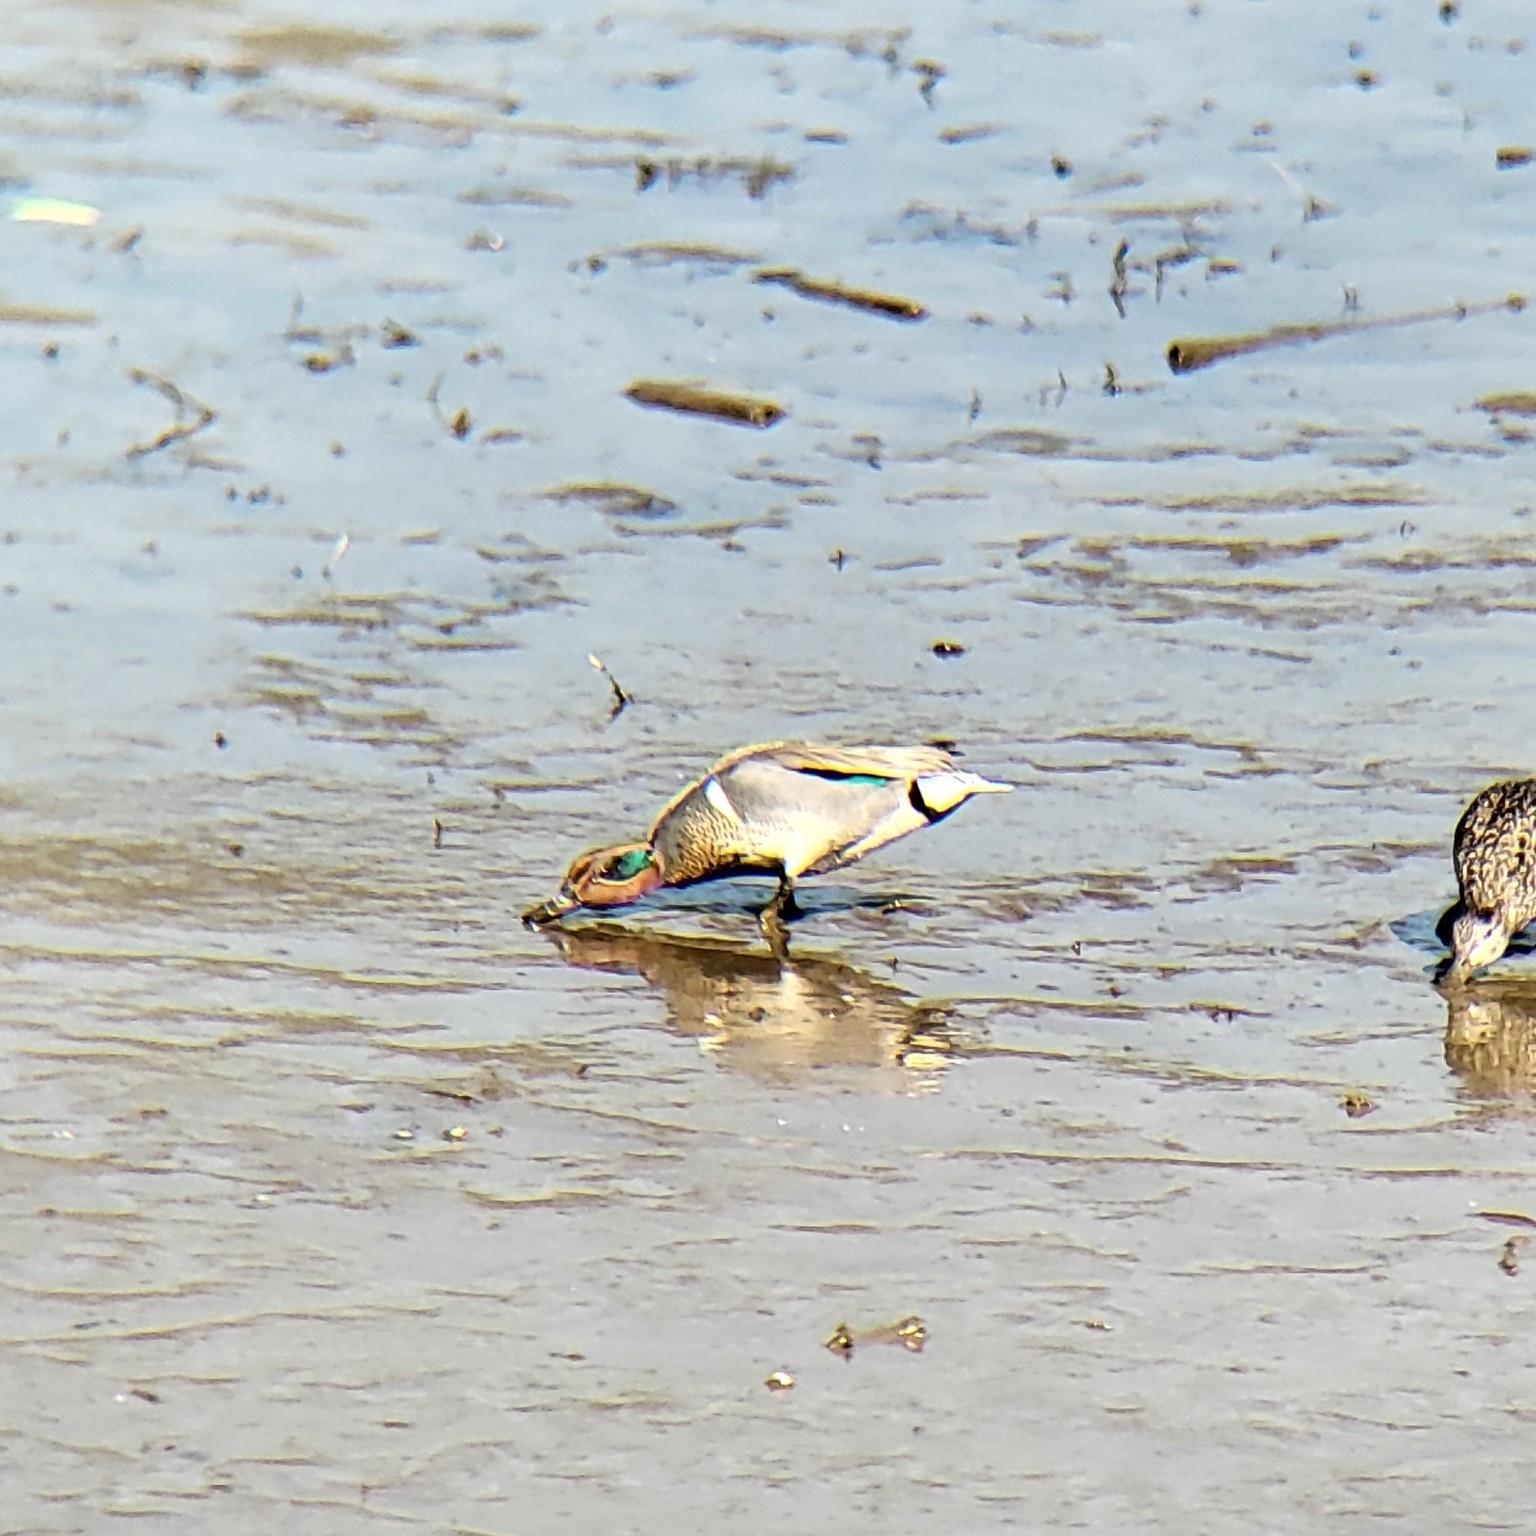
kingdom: Animalia
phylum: Chordata
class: Aves
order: Anseriformes
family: Anatidae
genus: Anas
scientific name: Anas crecca
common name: Eurasian teal
